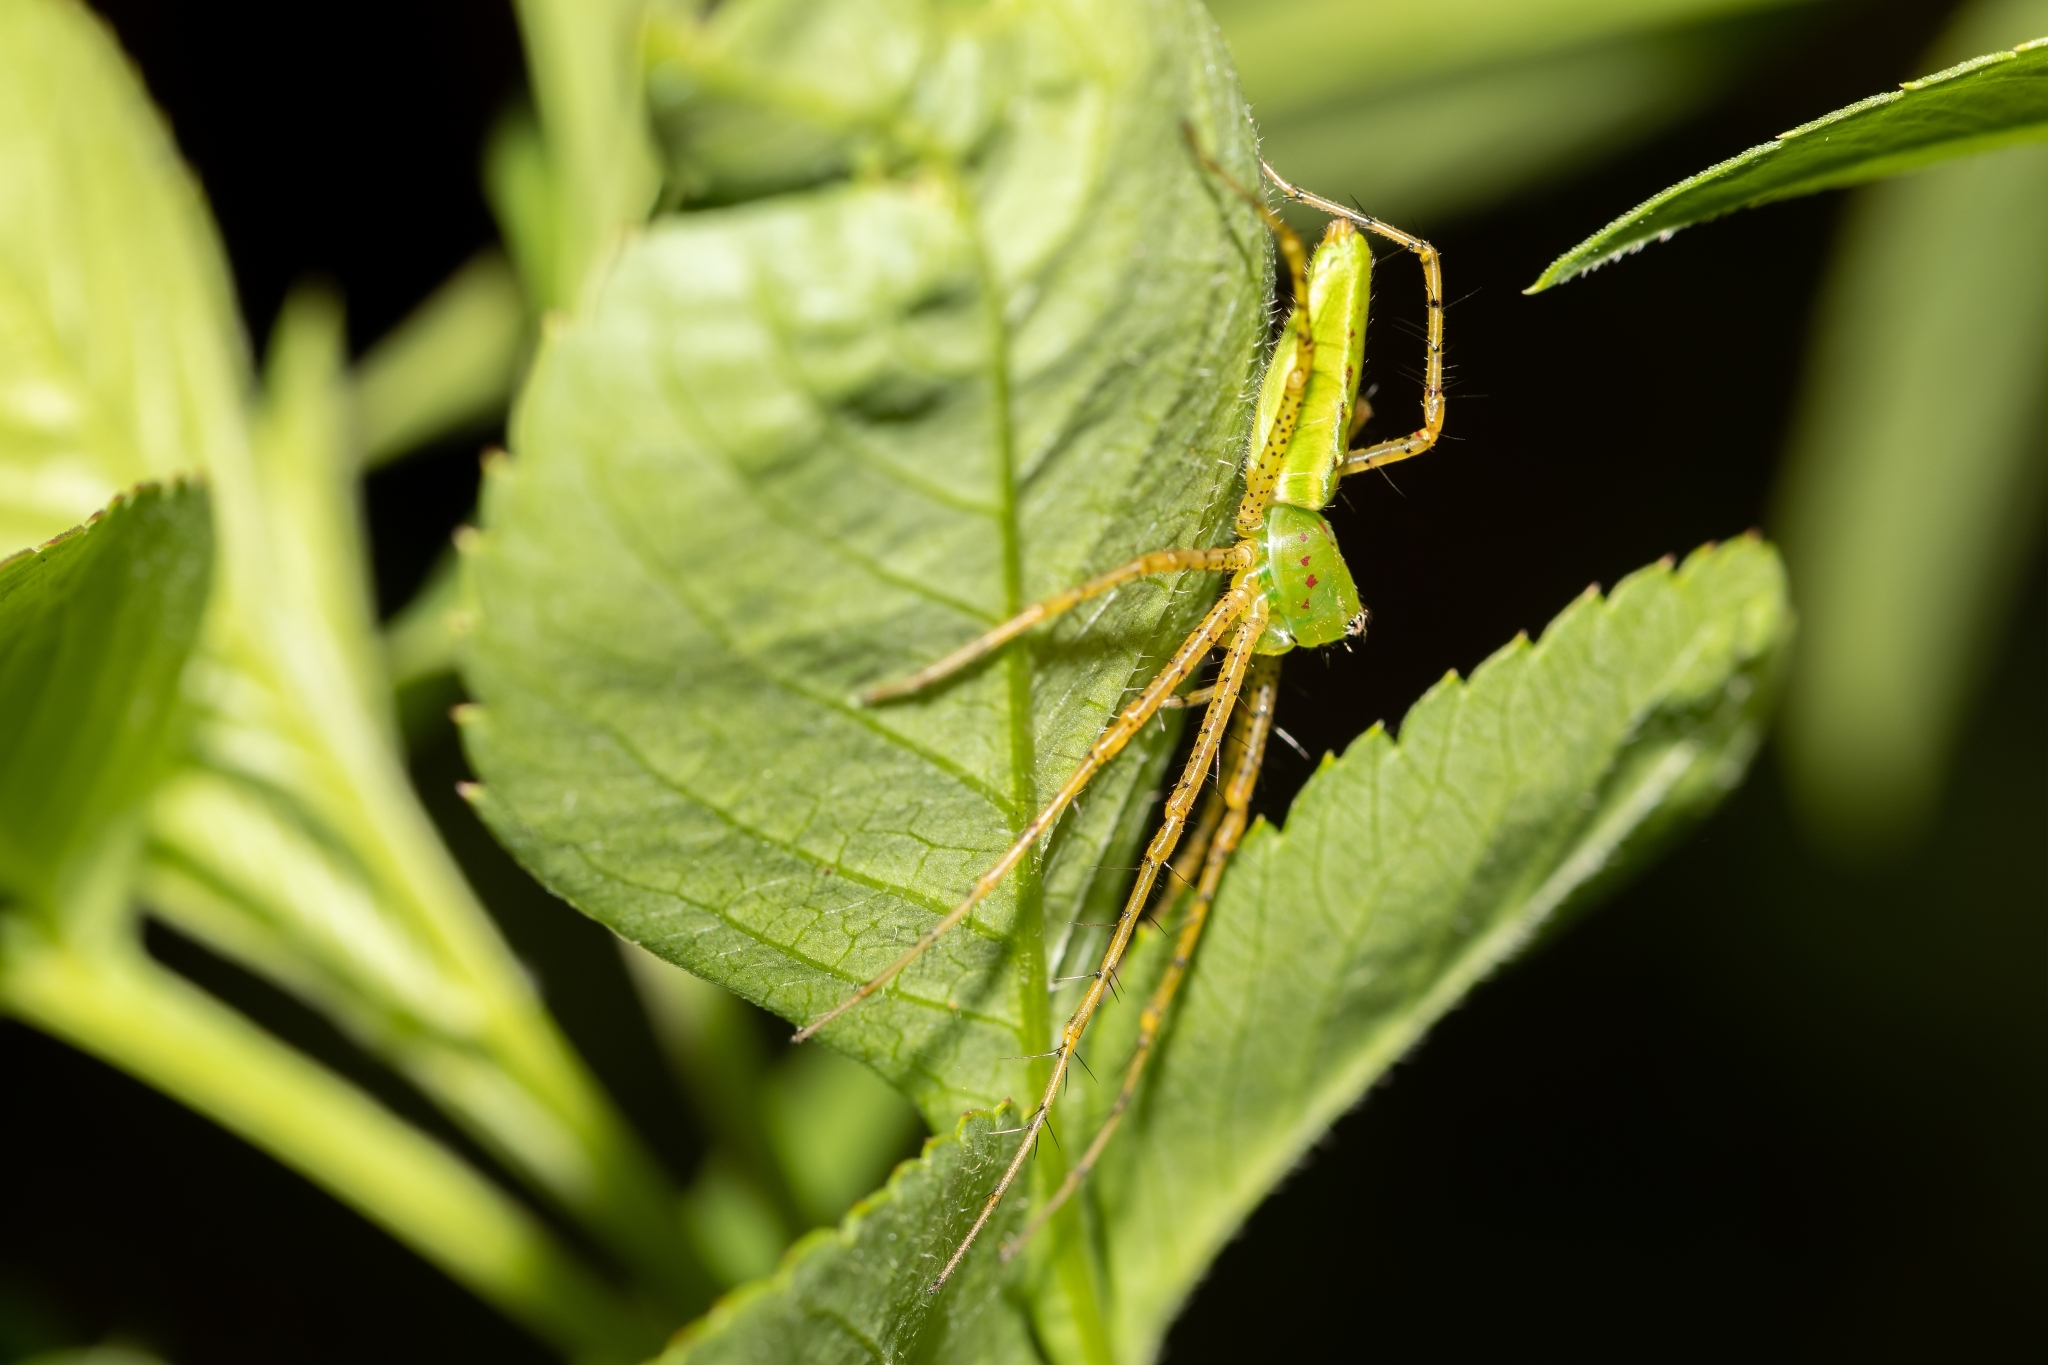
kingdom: Animalia
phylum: Arthropoda
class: Arachnida
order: Araneae
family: Oxyopidae
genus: Peucetia
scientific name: Peucetia viridans
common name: Lynx spiders
